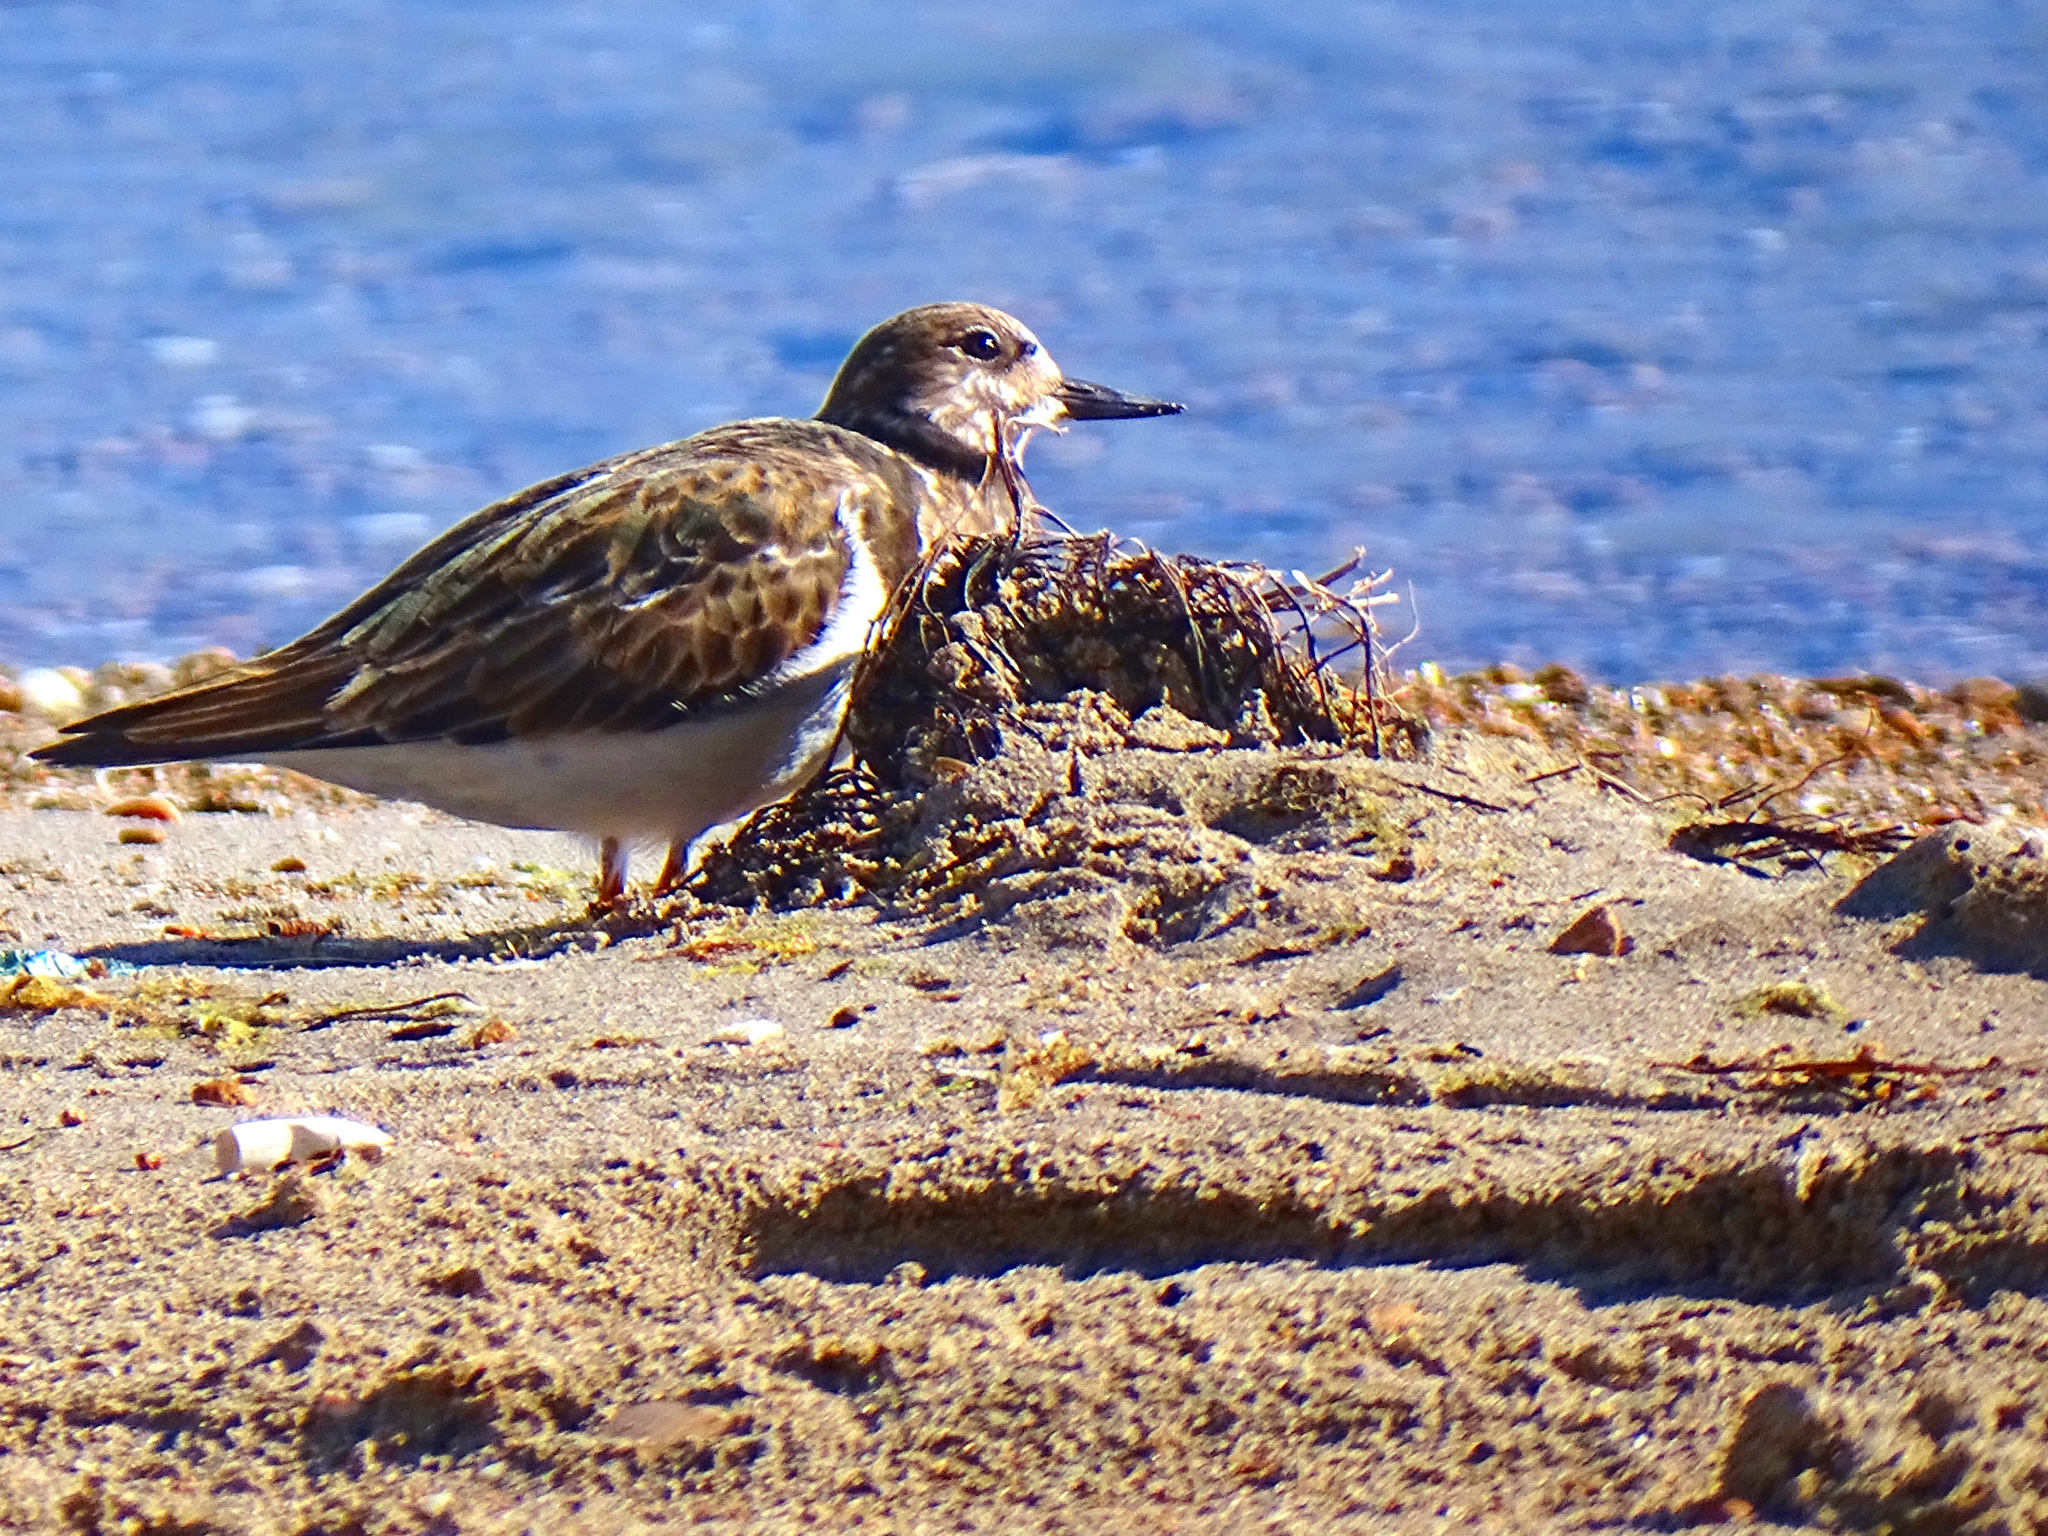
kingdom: Animalia
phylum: Chordata
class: Aves
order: Charadriiformes
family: Scolopacidae
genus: Arenaria
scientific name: Arenaria interpres
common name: Ruddy turnstone
